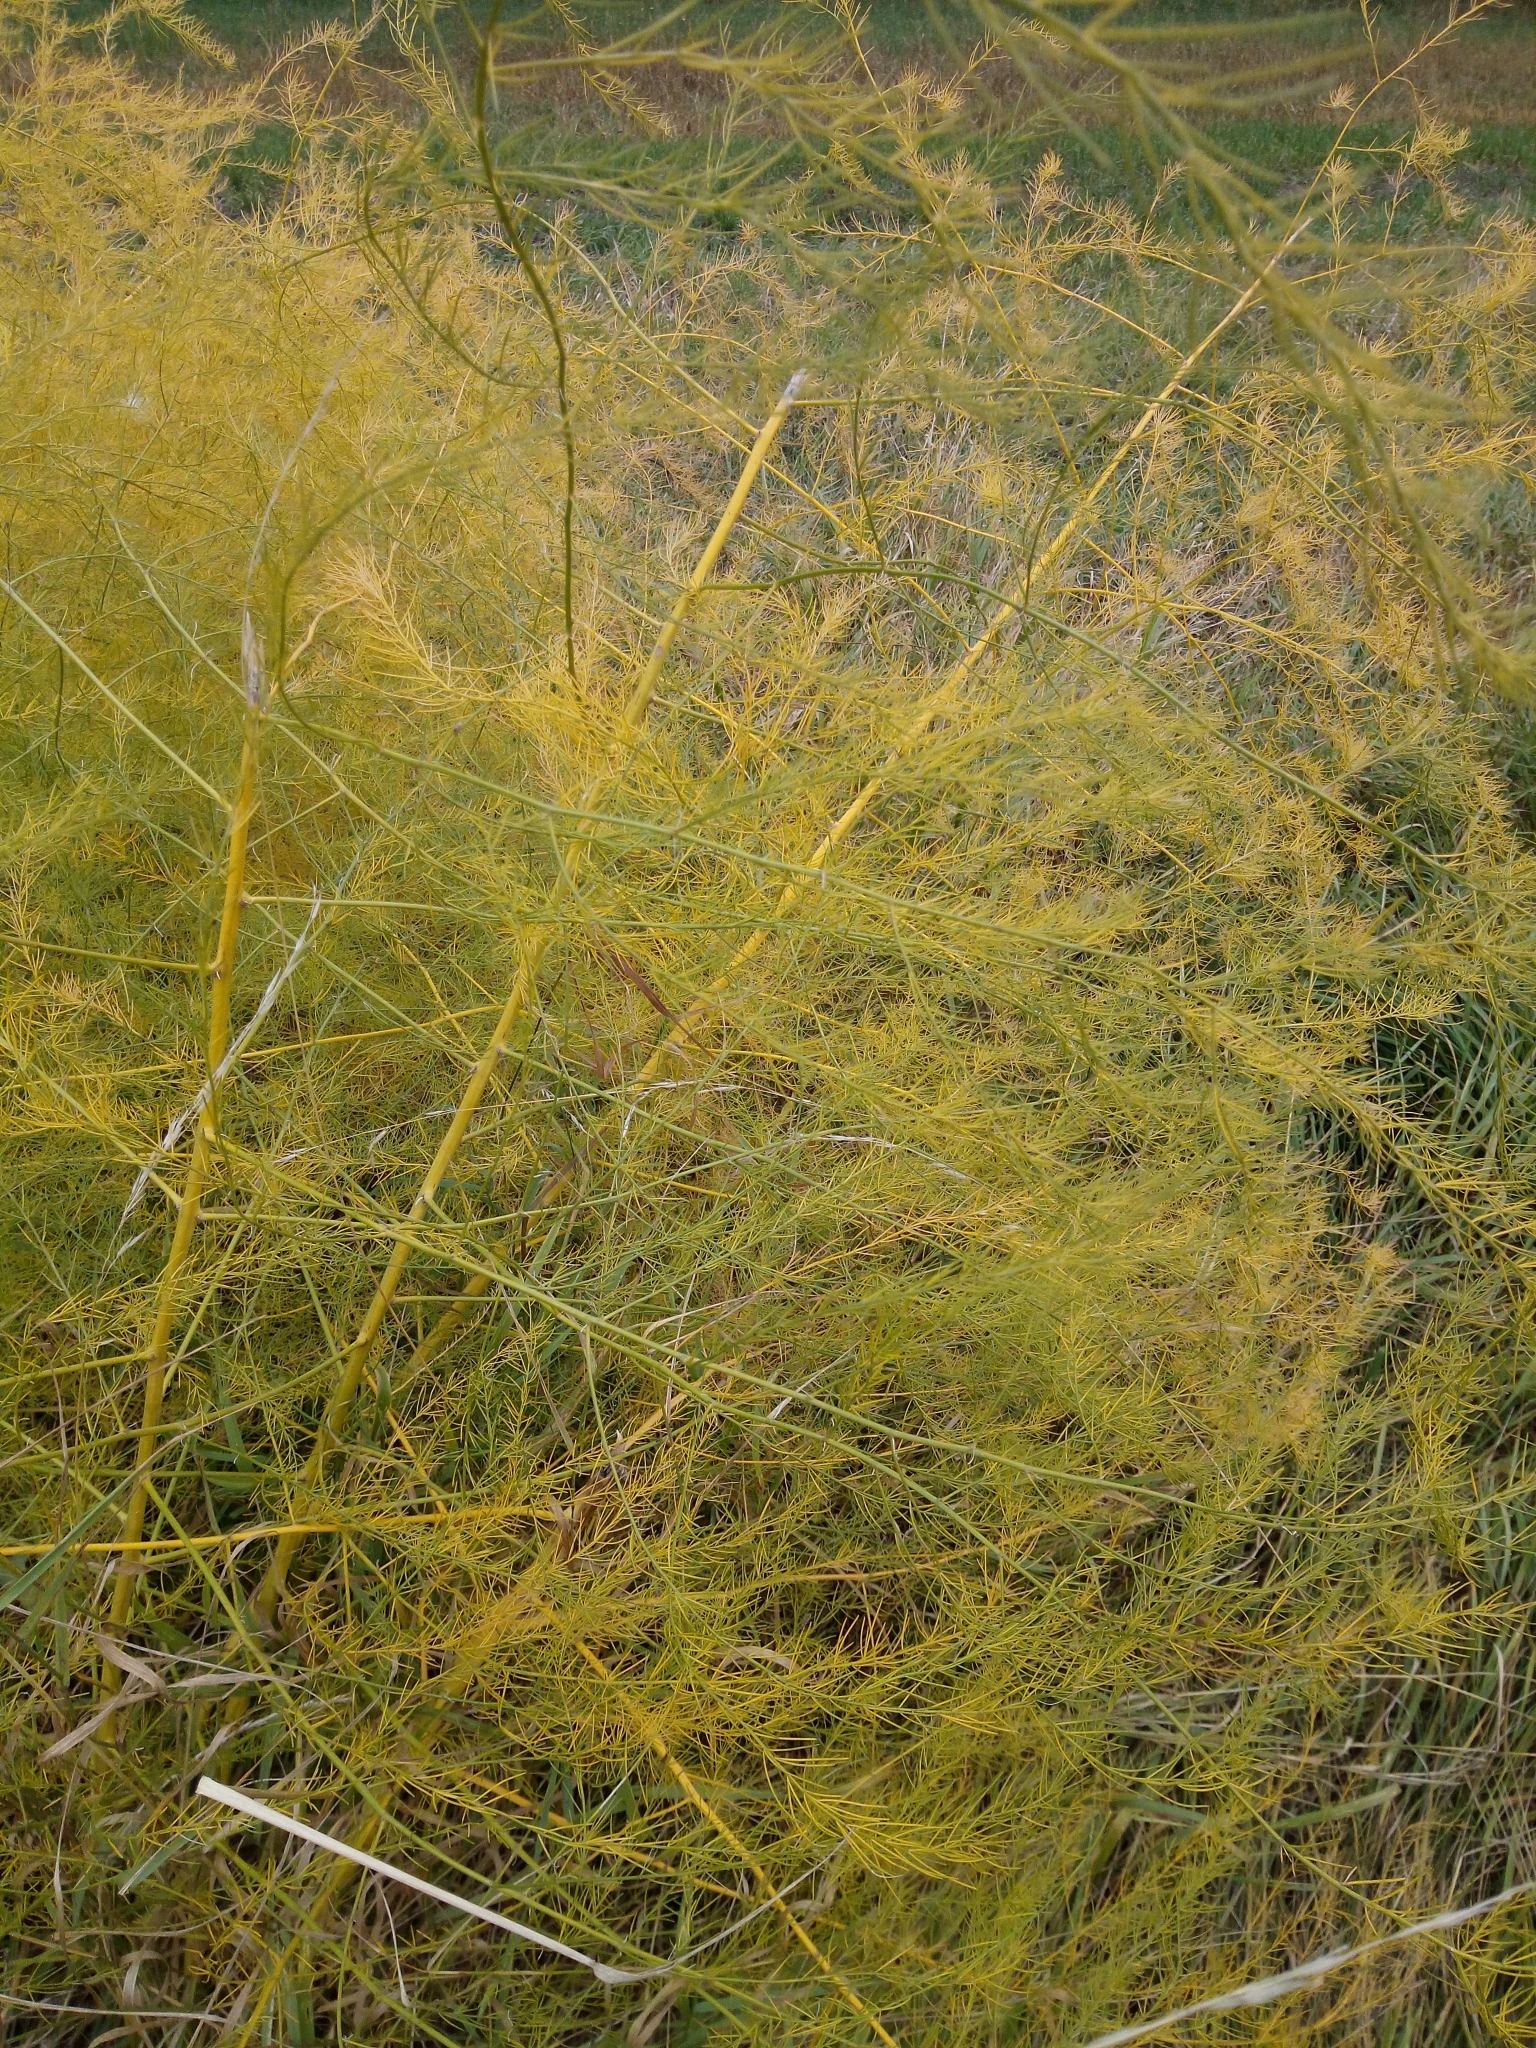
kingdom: Plantae
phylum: Tracheophyta
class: Liliopsida
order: Asparagales
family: Asparagaceae
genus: Asparagus
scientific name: Asparagus officinalis
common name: Garden asparagus
